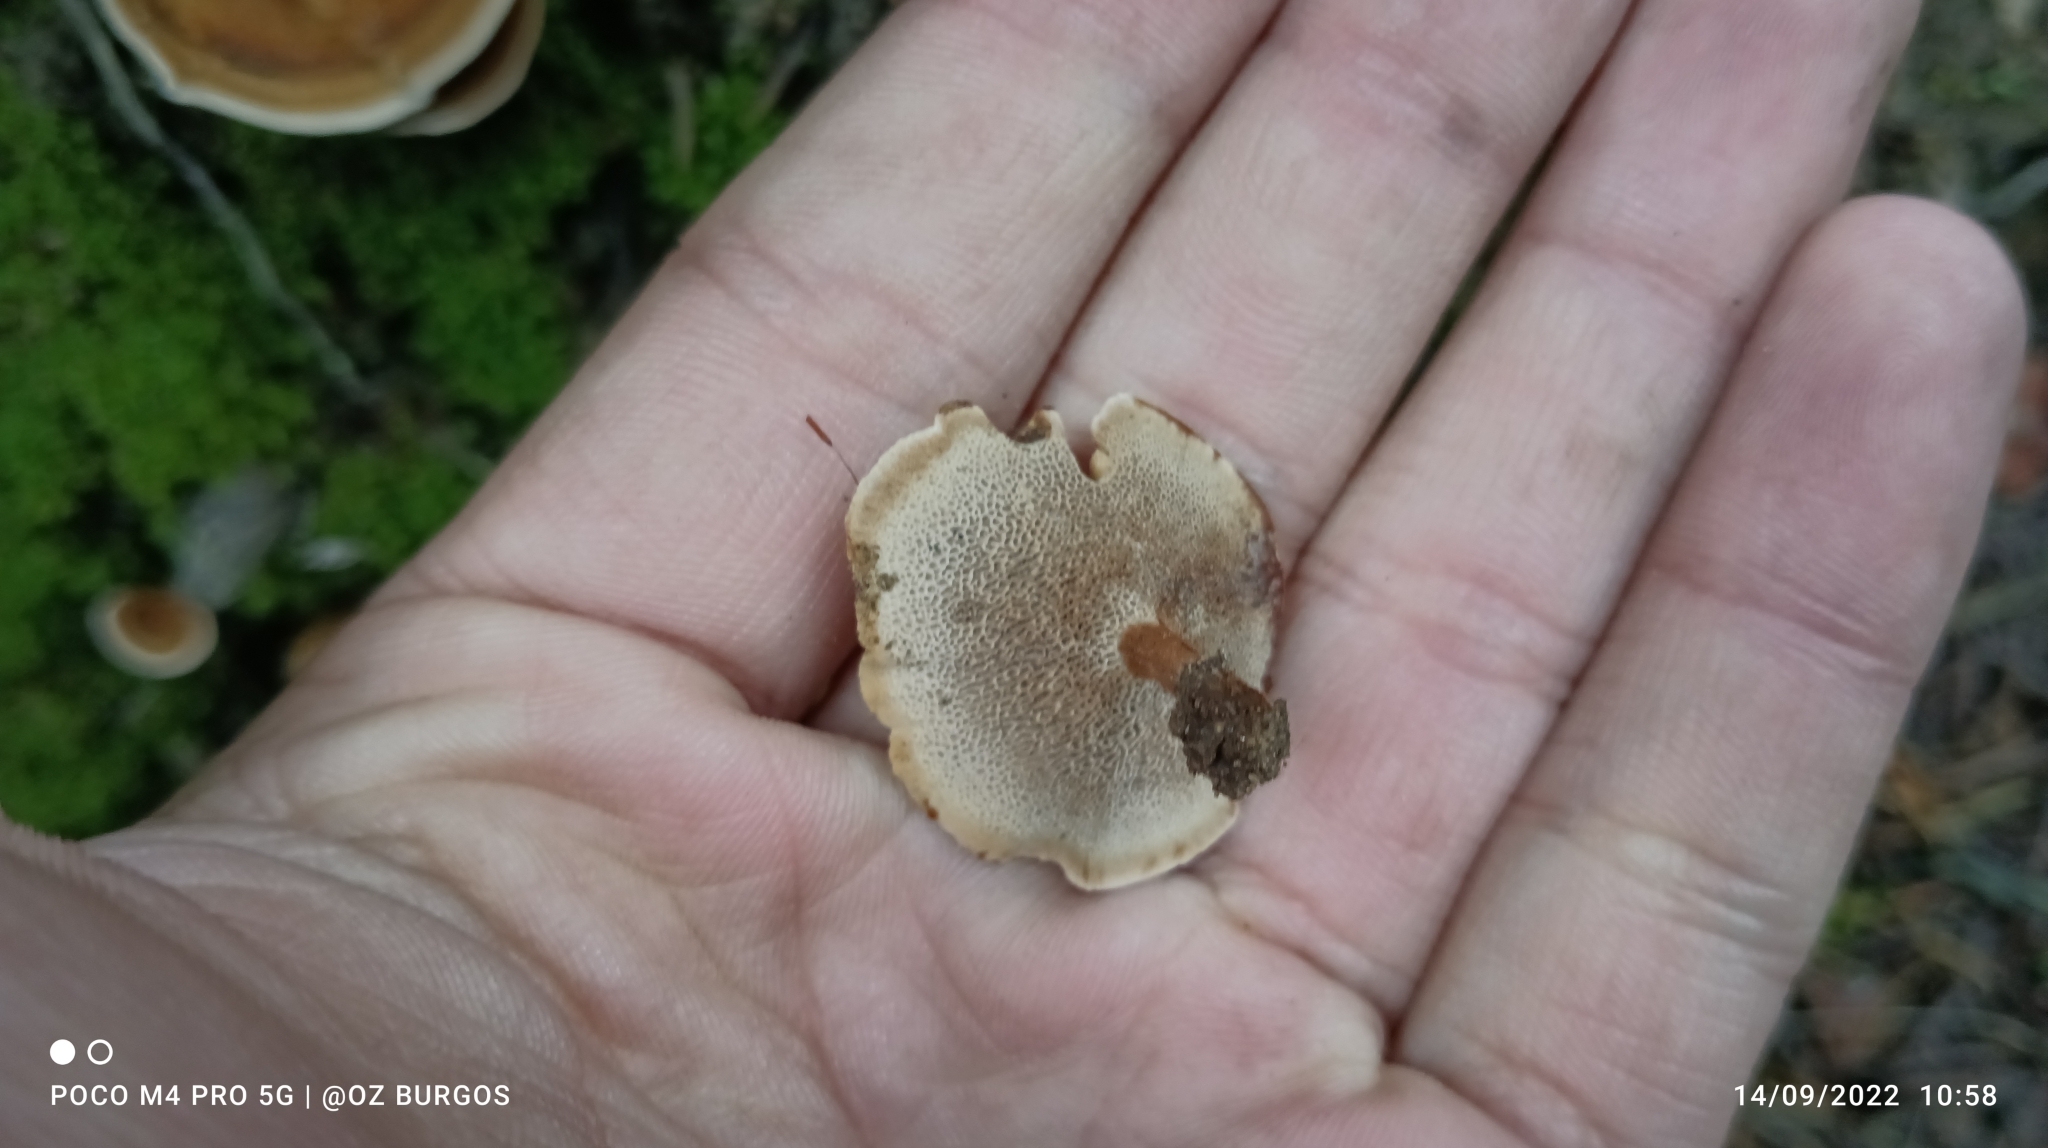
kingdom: Fungi
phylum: Basidiomycota
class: Agaricomycetes
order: Hymenochaetales
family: Hymenochaetaceae
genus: Coltricia
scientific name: Coltricia perennis
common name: Tiger's eye
